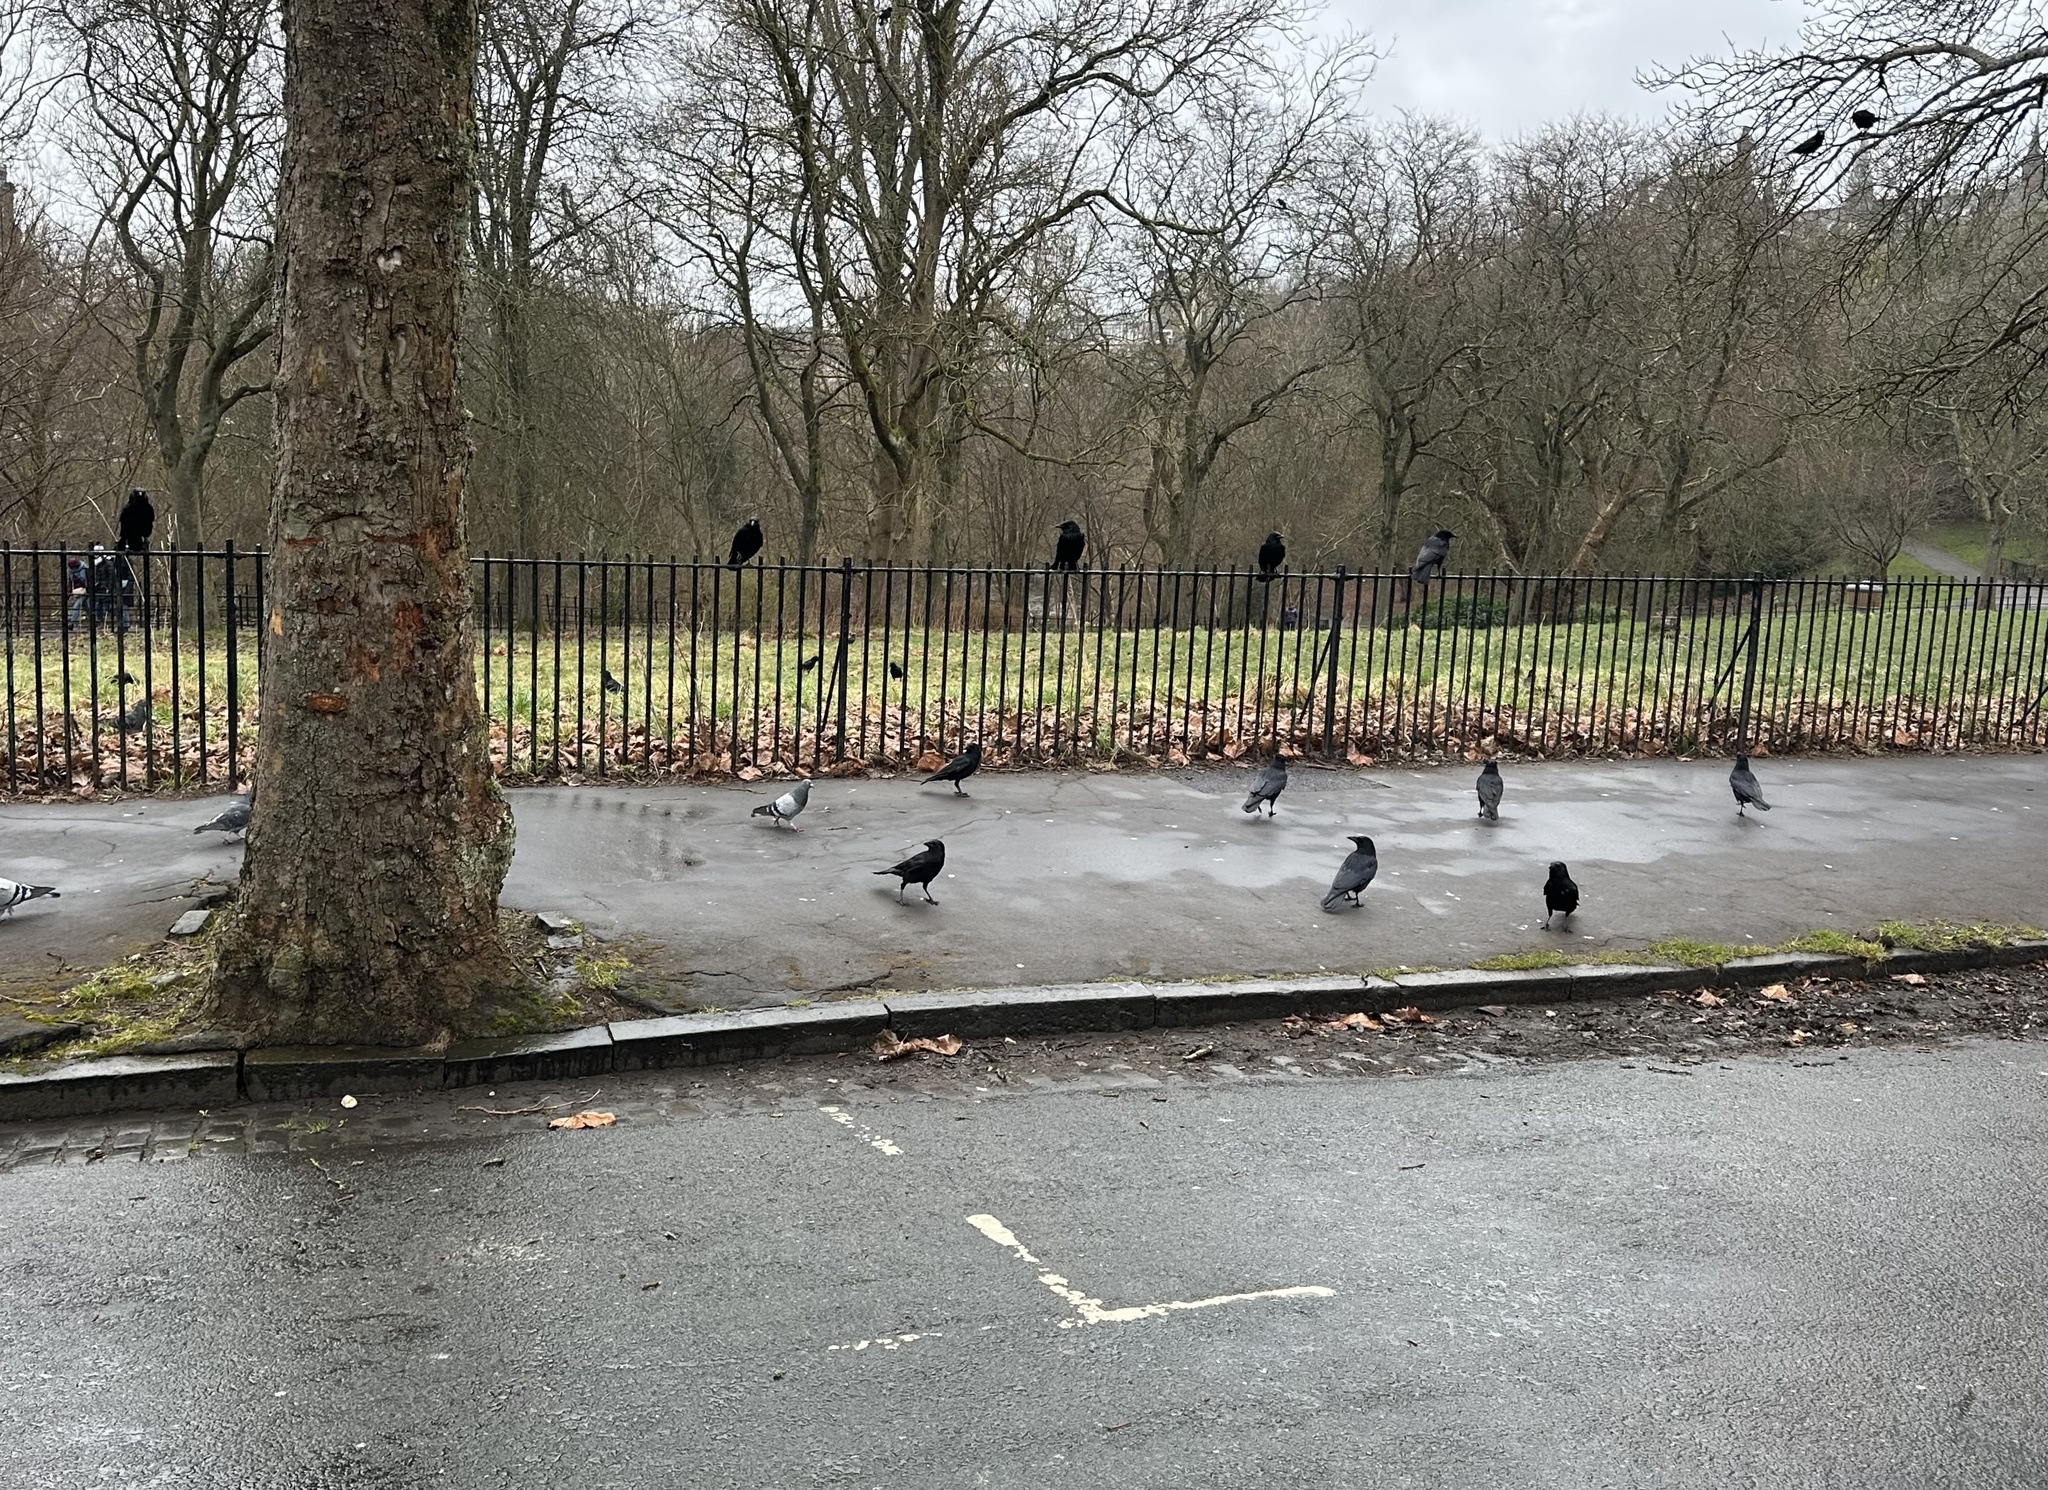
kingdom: Animalia
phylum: Chordata
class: Aves
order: Passeriformes
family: Corvidae
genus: Corvus
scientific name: Corvus corone
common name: Carrion crow
